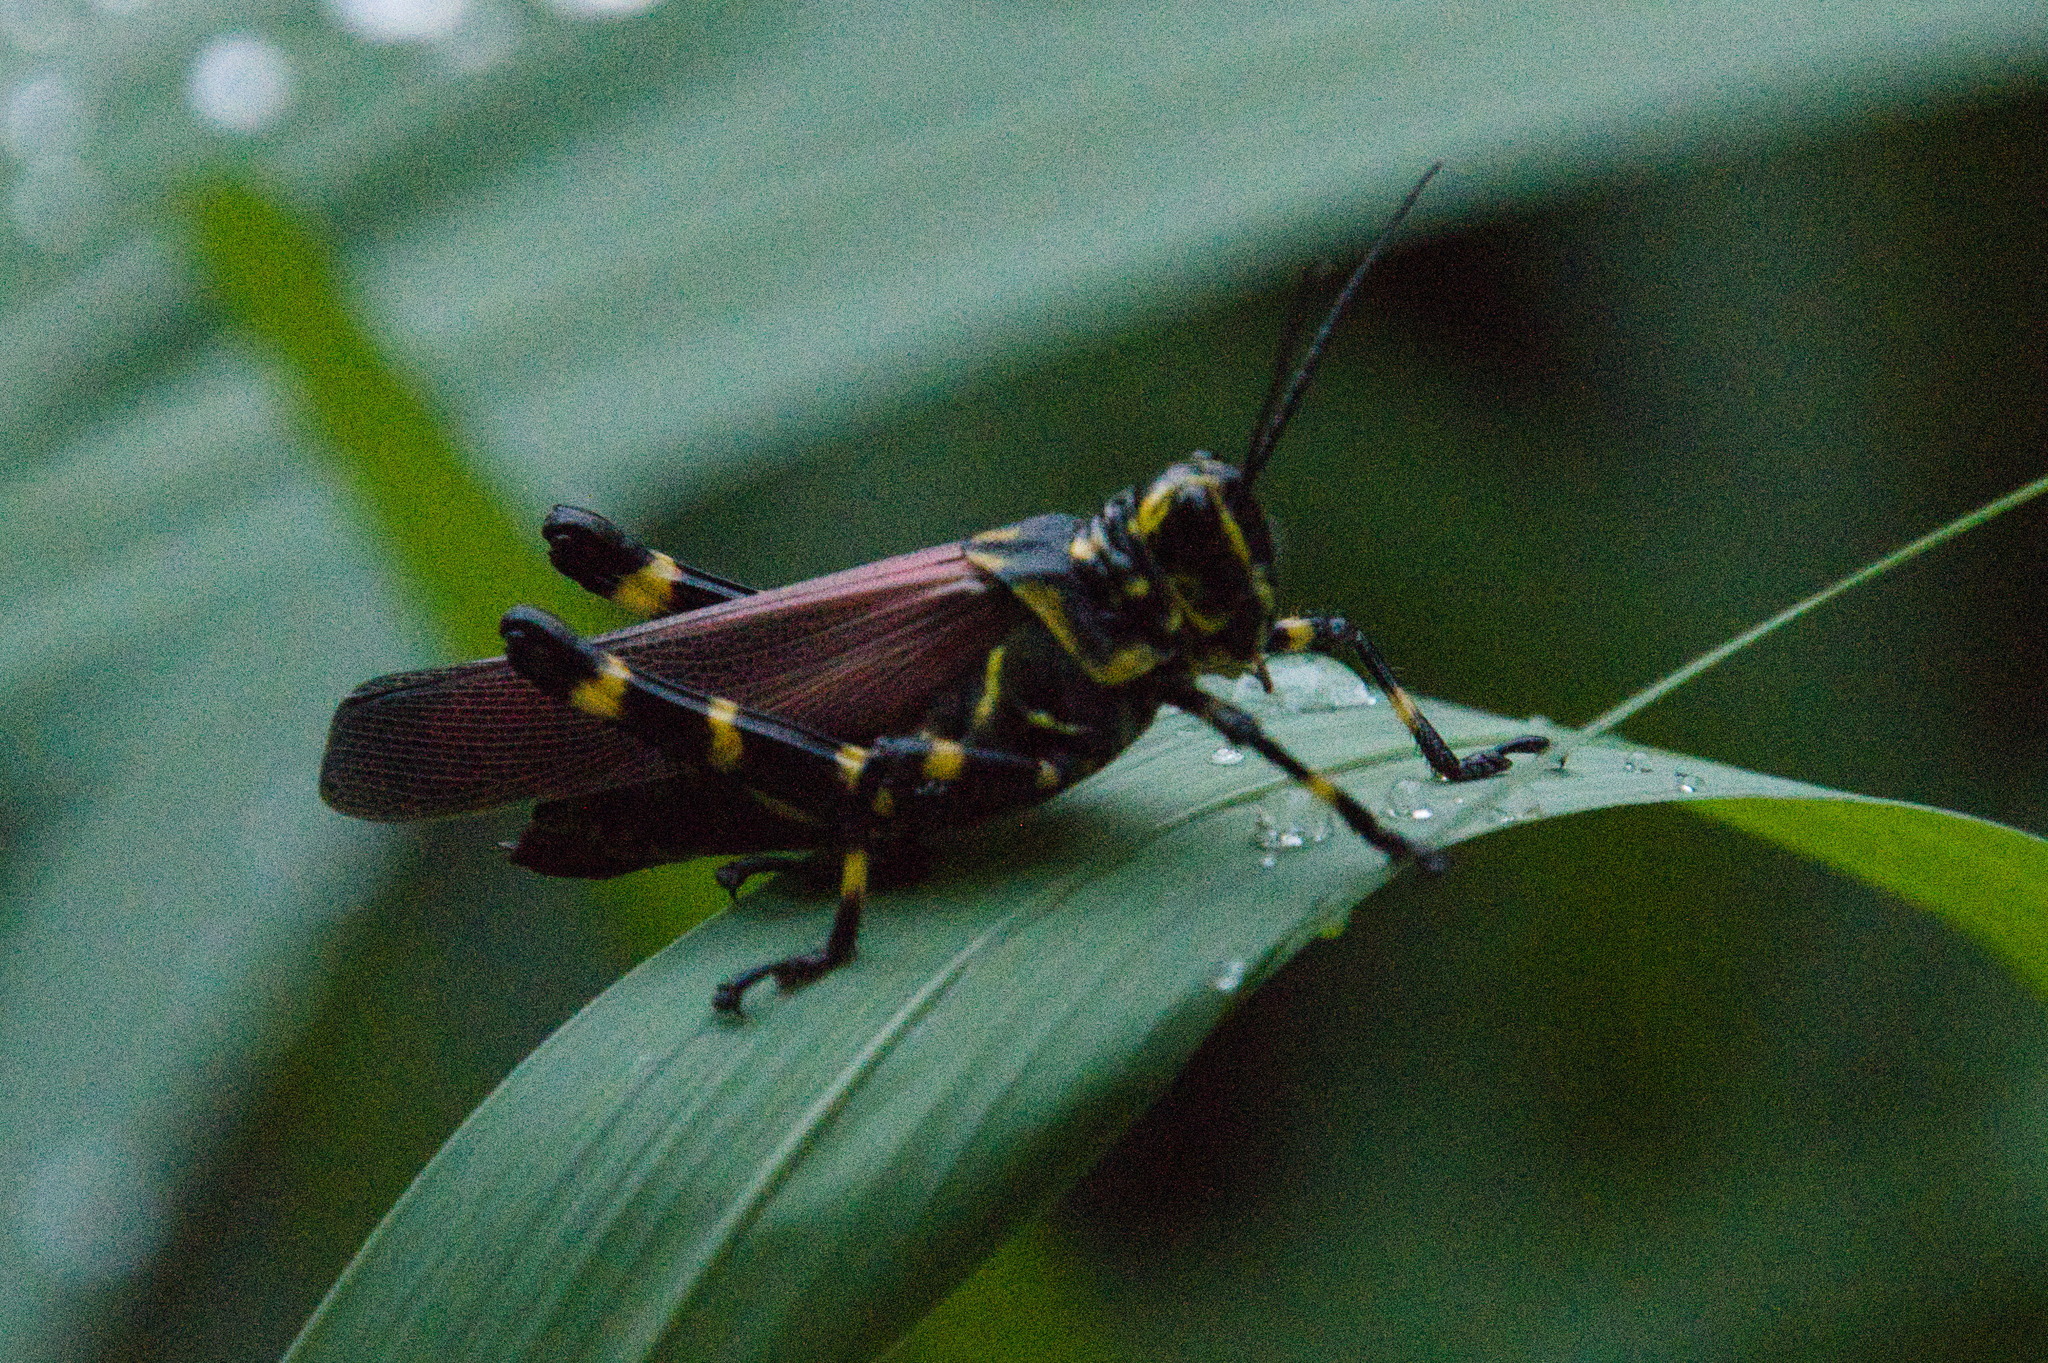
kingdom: Animalia
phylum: Arthropoda
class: Insecta
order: Orthoptera
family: Romaleidae
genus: Chromacris
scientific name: Chromacris speciosa
